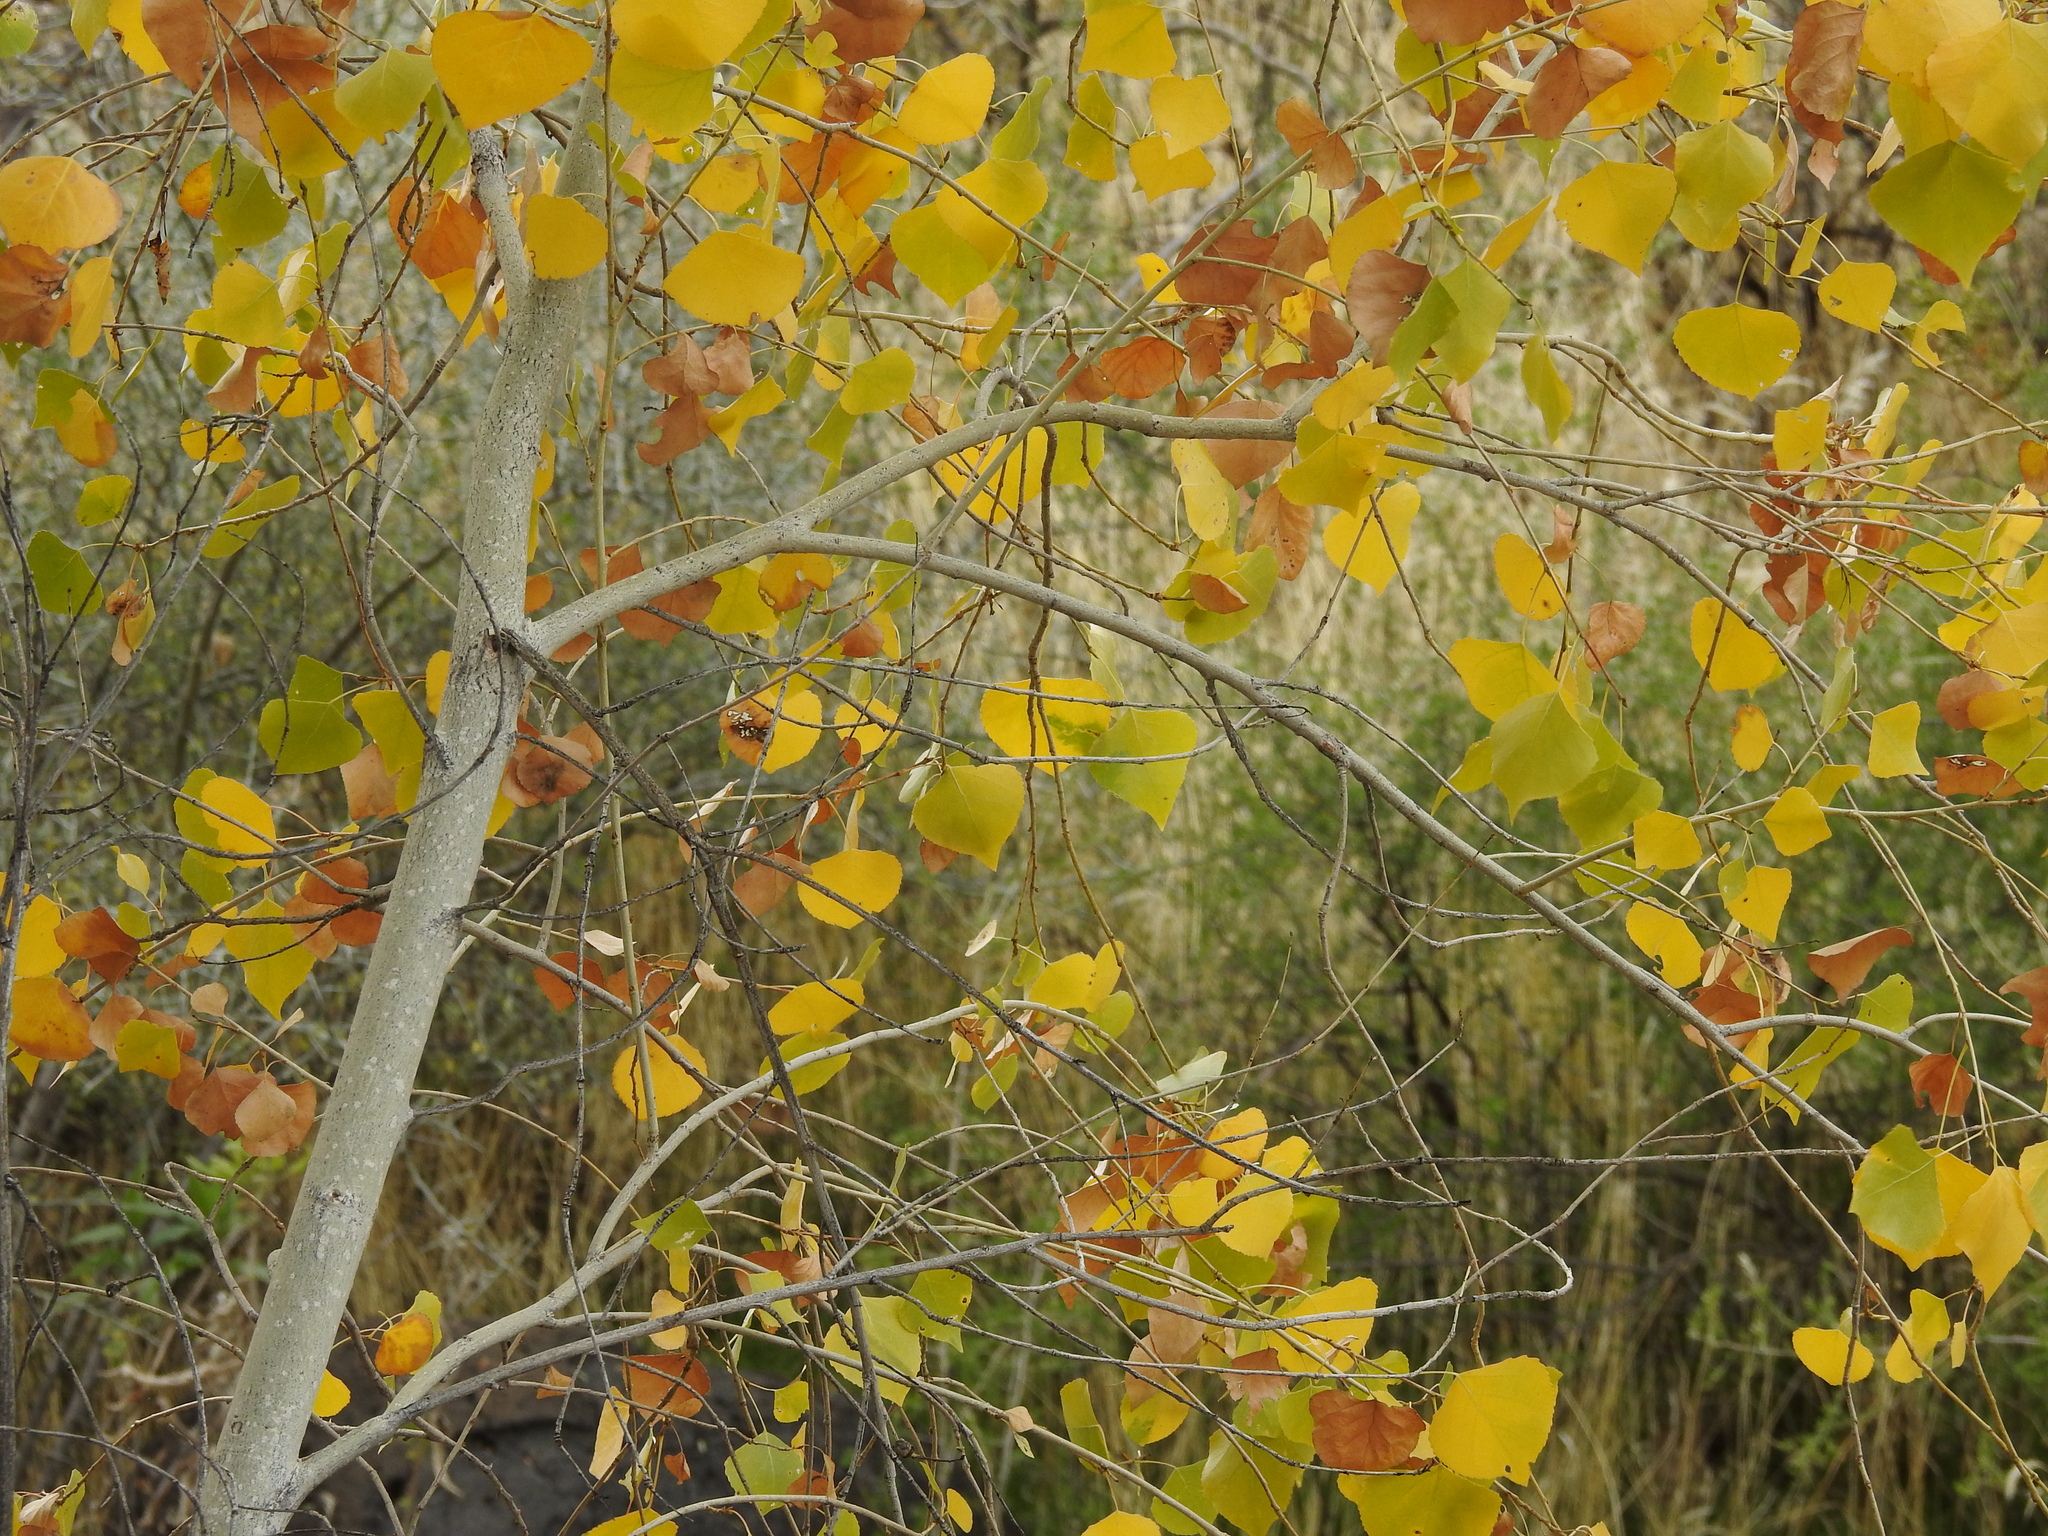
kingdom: Plantae
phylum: Tracheophyta
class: Magnoliopsida
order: Malpighiales
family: Salicaceae
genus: Populus
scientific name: Populus fremontii
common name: Fremont's cottonwood
